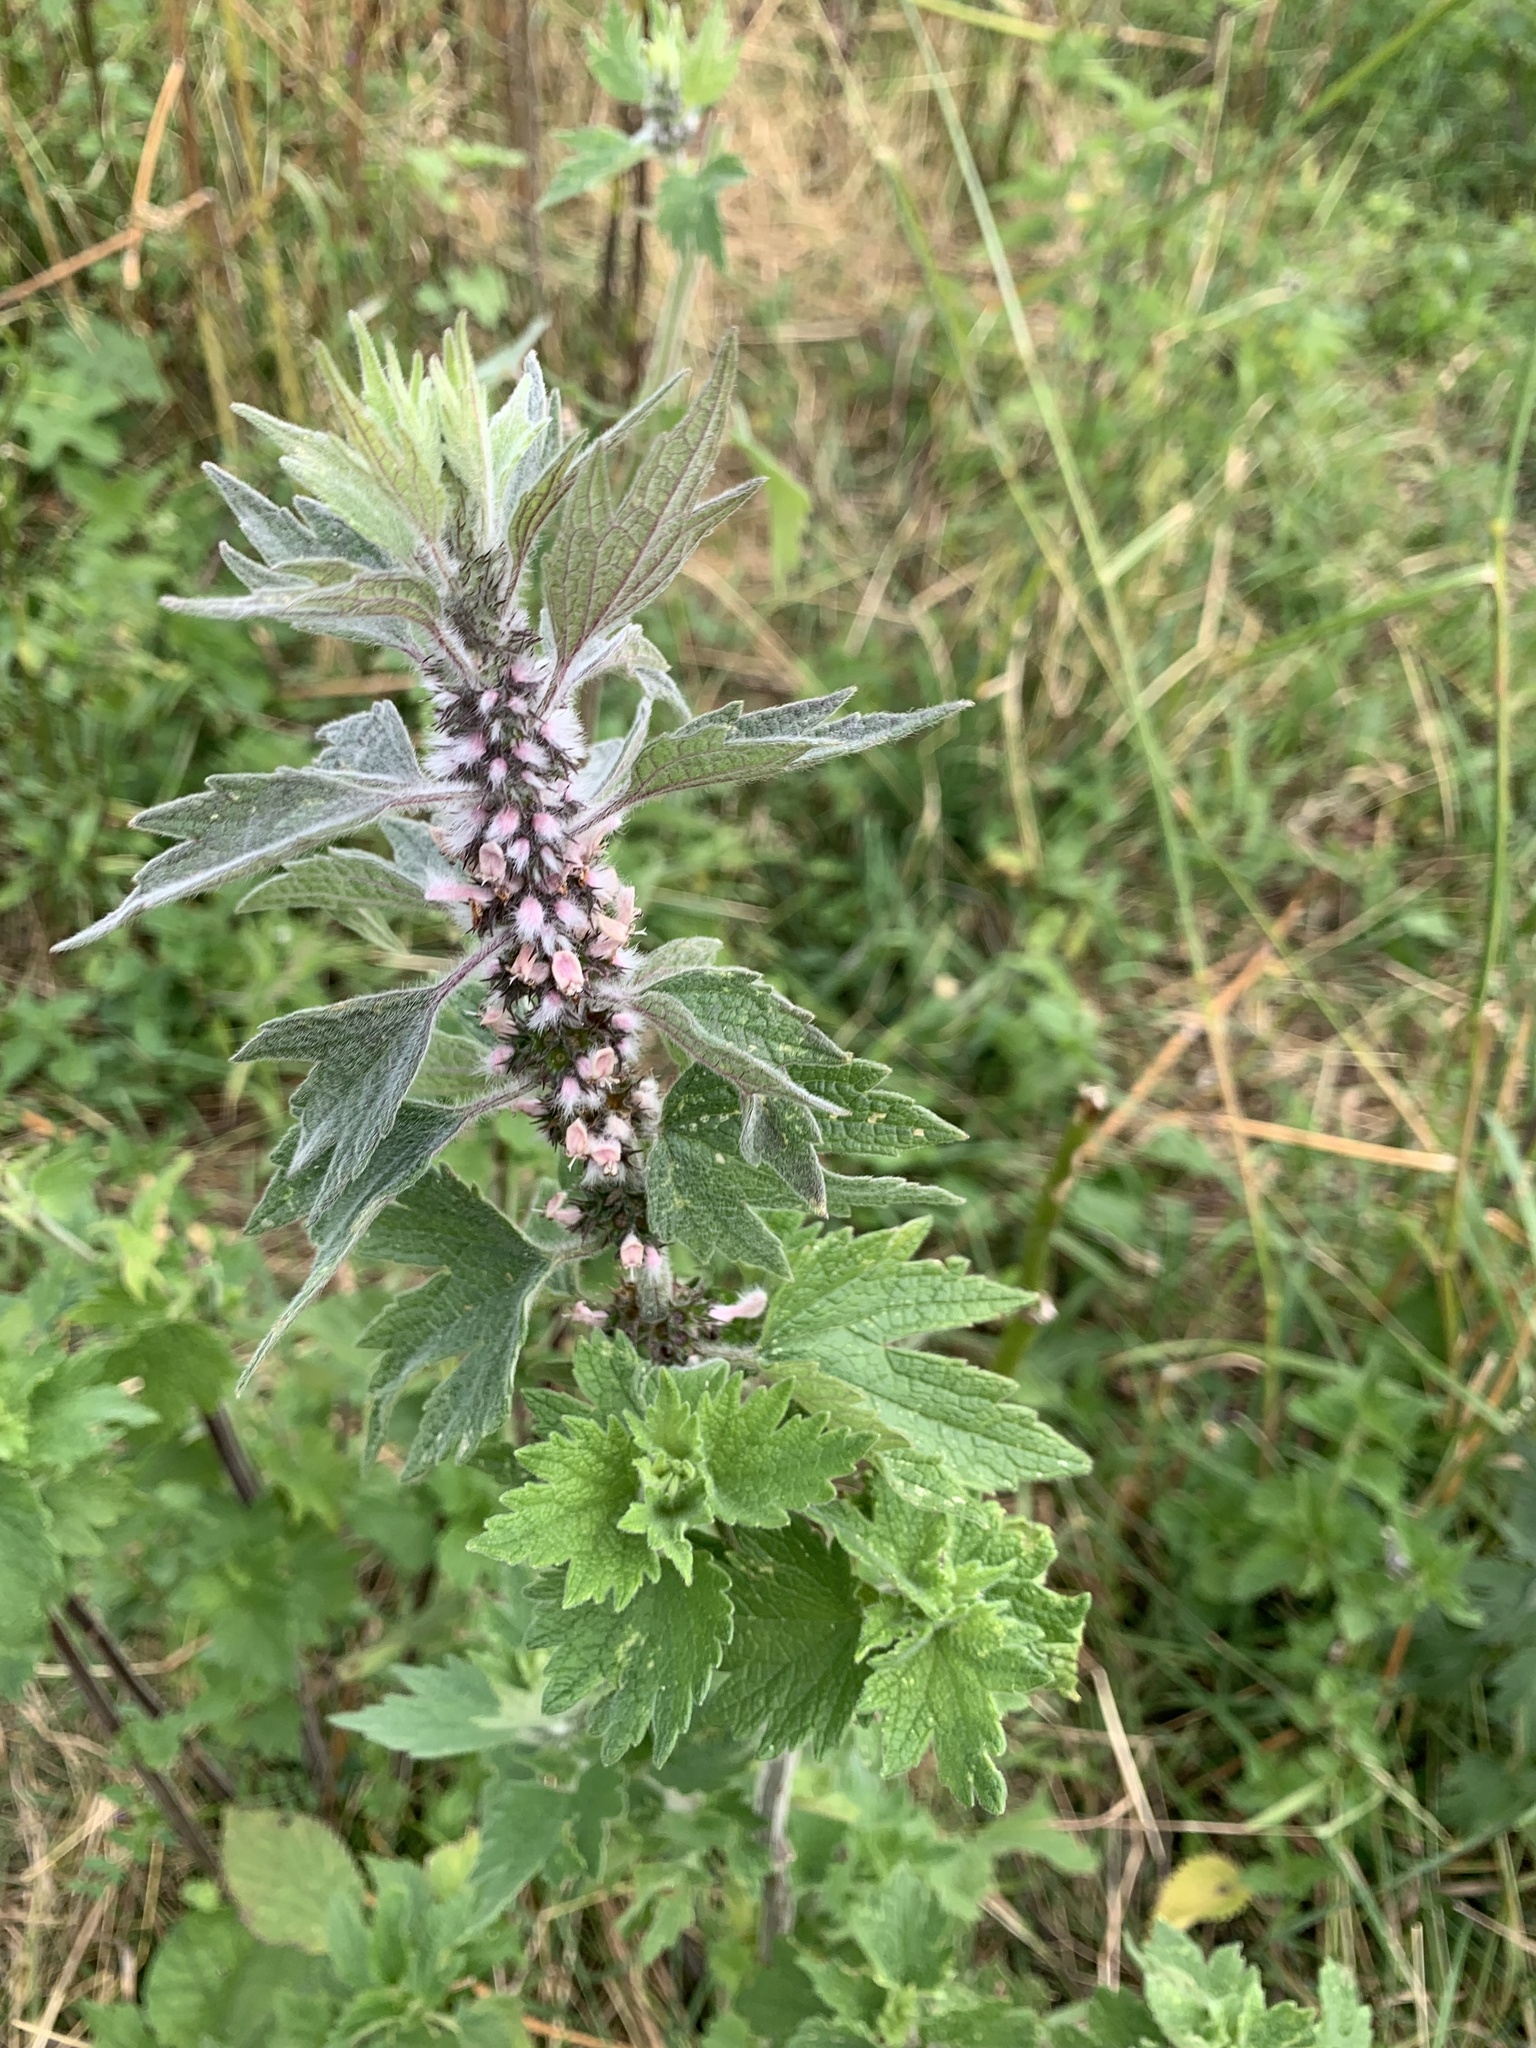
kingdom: Plantae
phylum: Tracheophyta
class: Magnoliopsida
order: Lamiales
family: Lamiaceae
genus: Leonurus
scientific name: Leonurus quinquelobatus
